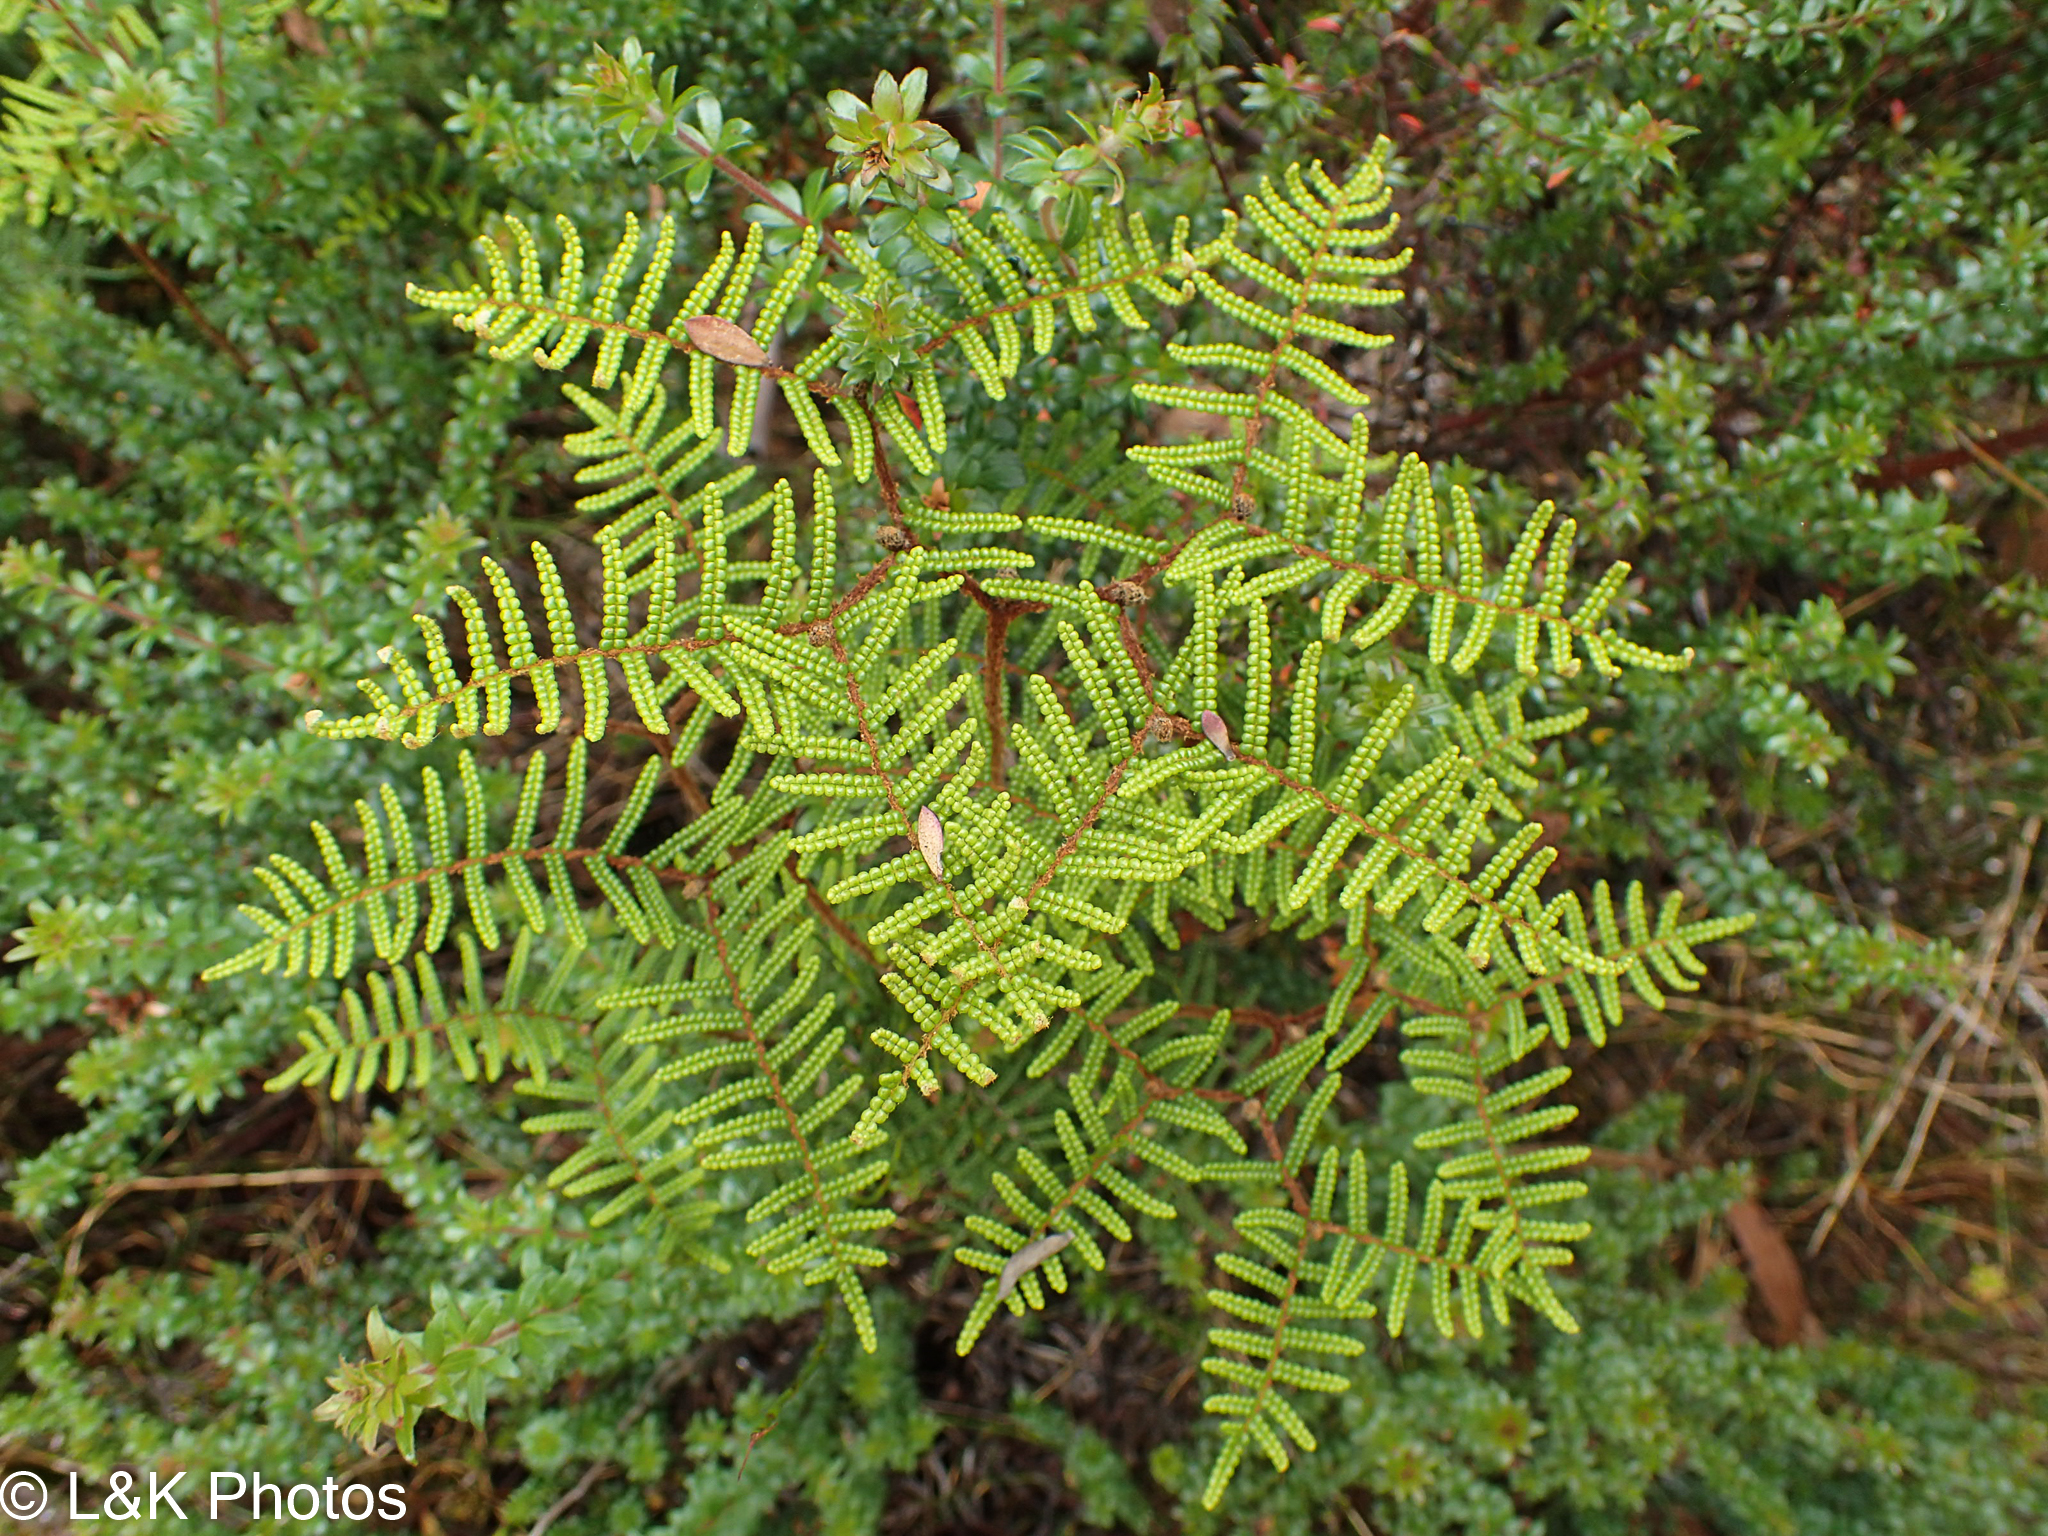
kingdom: Plantae
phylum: Tracheophyta
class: Polypodiopsida
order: Gleicheniales
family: Gleicheniaceae
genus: Gleichenia
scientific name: Gleichenia dicarpa
